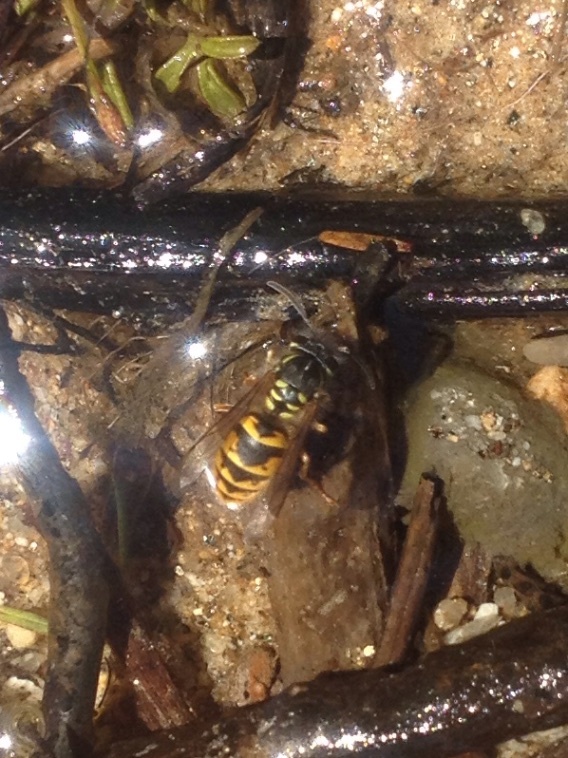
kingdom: Animalia
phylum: Arthropoda
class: Insecta
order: Hymenoptera
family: Vespidae
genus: Vespula
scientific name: Vespula vulgaris
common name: Common wasp
